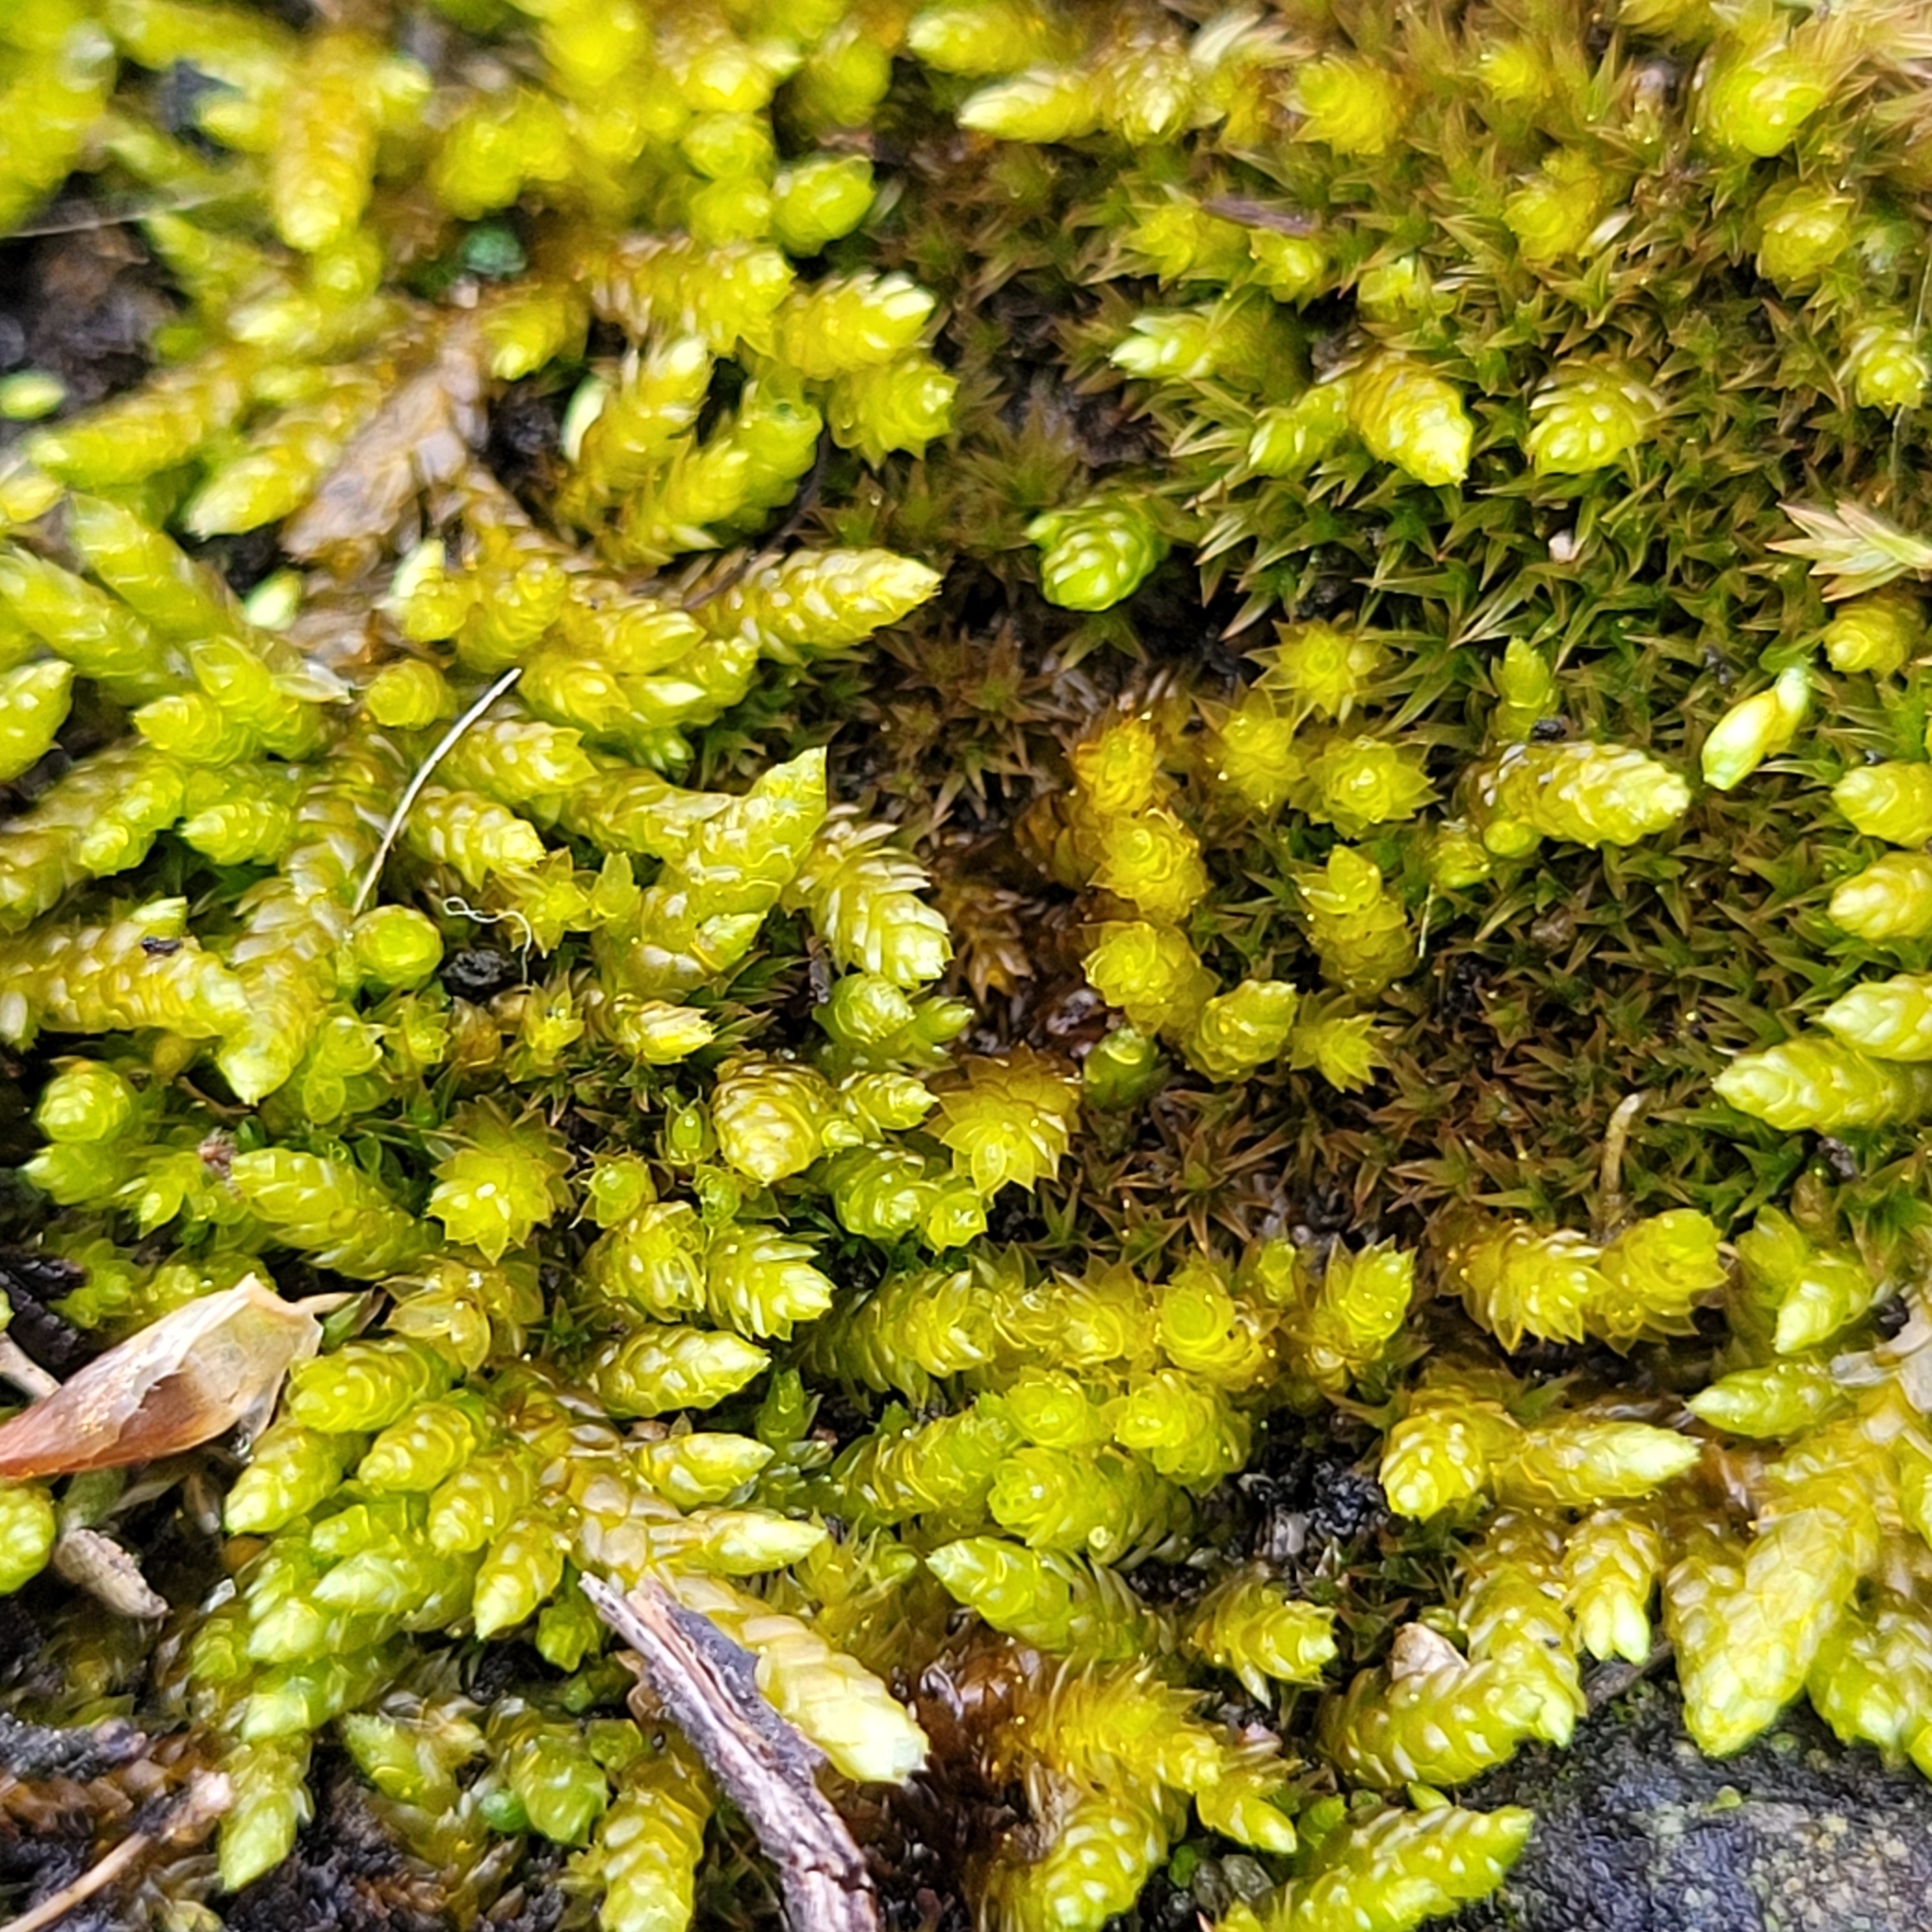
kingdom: Plantae
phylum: Bryophyta
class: Bryopsida
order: Hypnales
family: Brachytheciaceae
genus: Bryoandersonia
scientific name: Bryoandersonia illecebra
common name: Spoon-leaved moss
